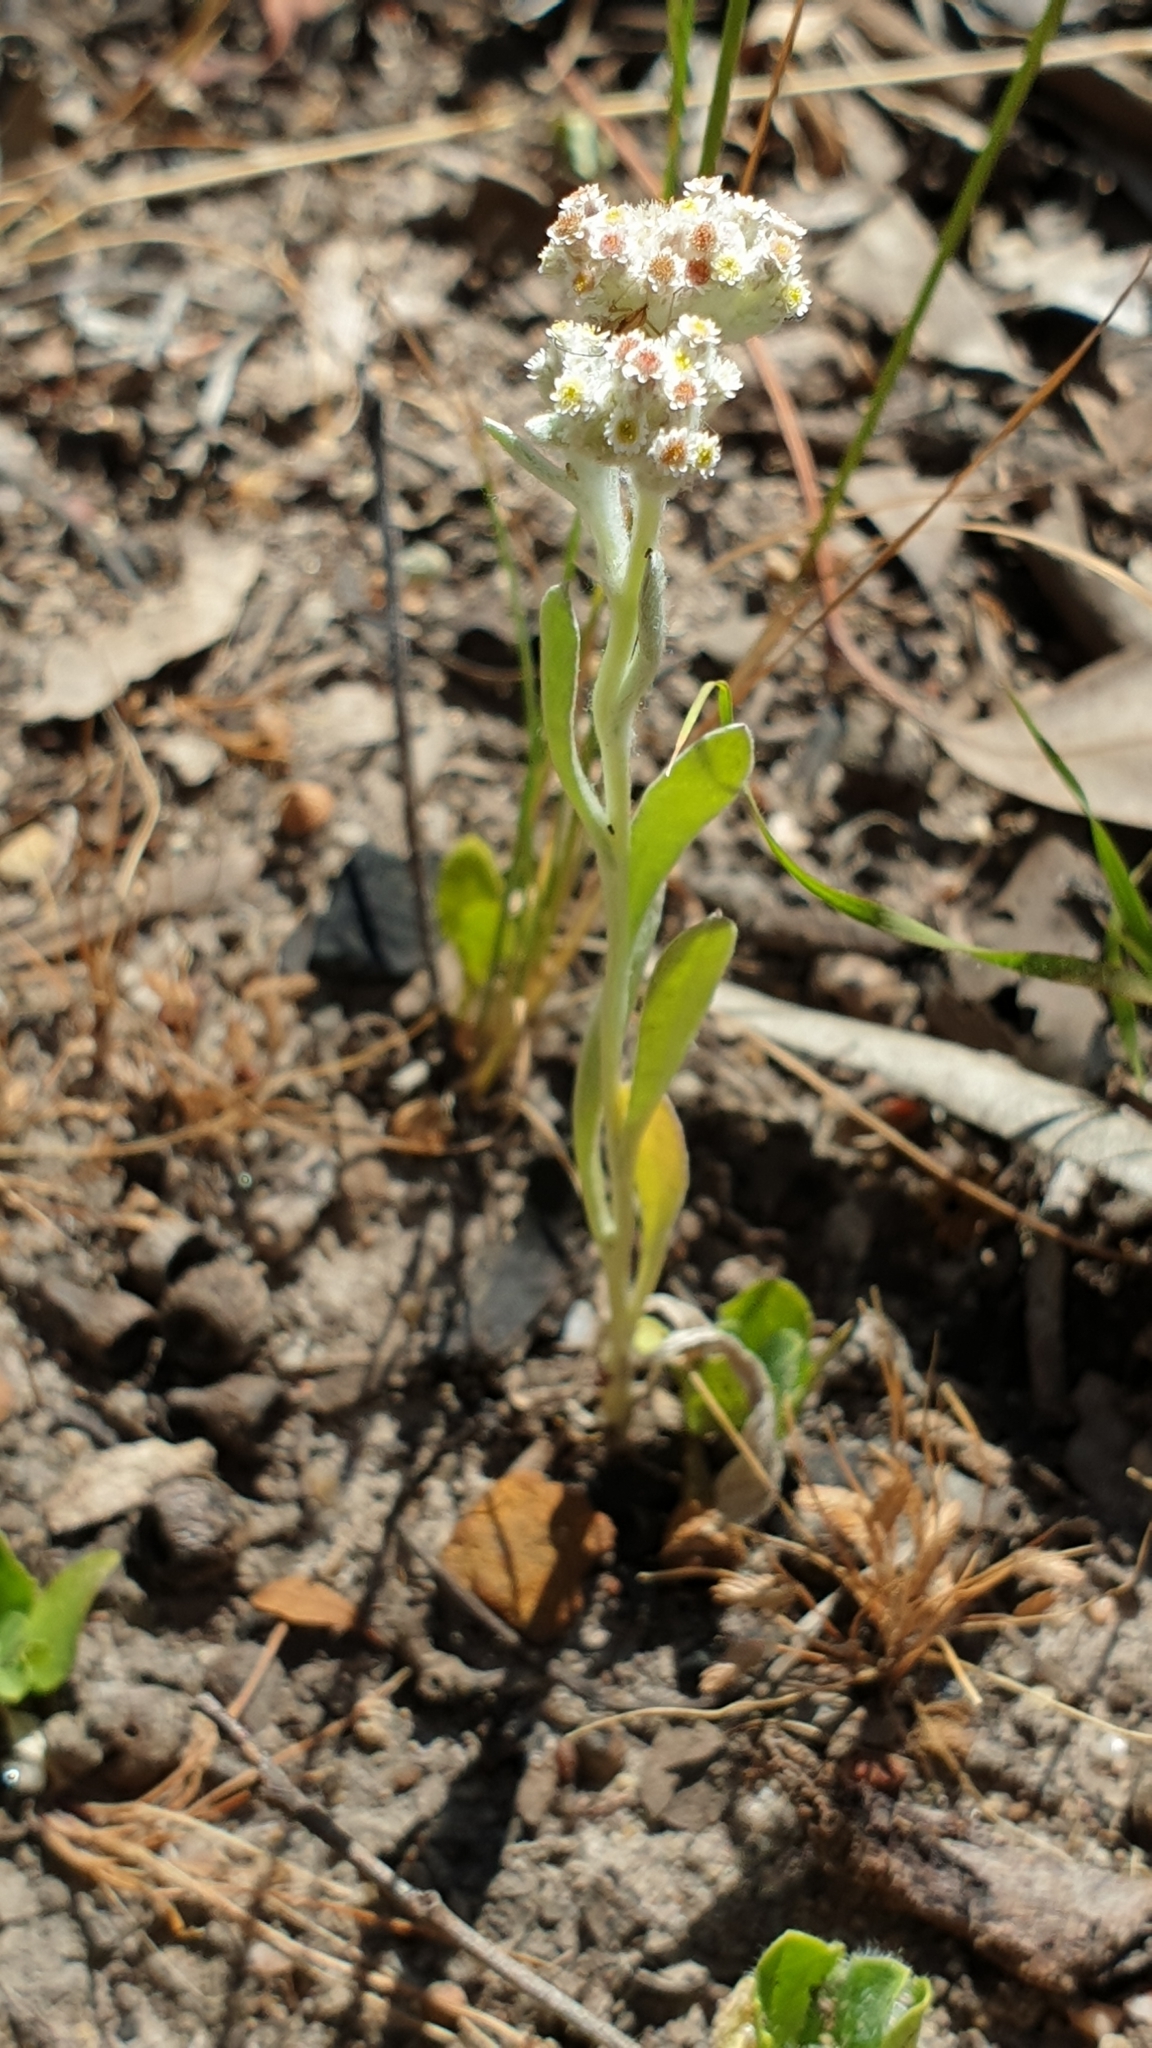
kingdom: Plantae
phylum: Tracheophyta
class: Magnoliopsida
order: Asterales
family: Asteraceae
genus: Vellereophyton
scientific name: Vellereophyton dealbatum
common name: White-cudweed
